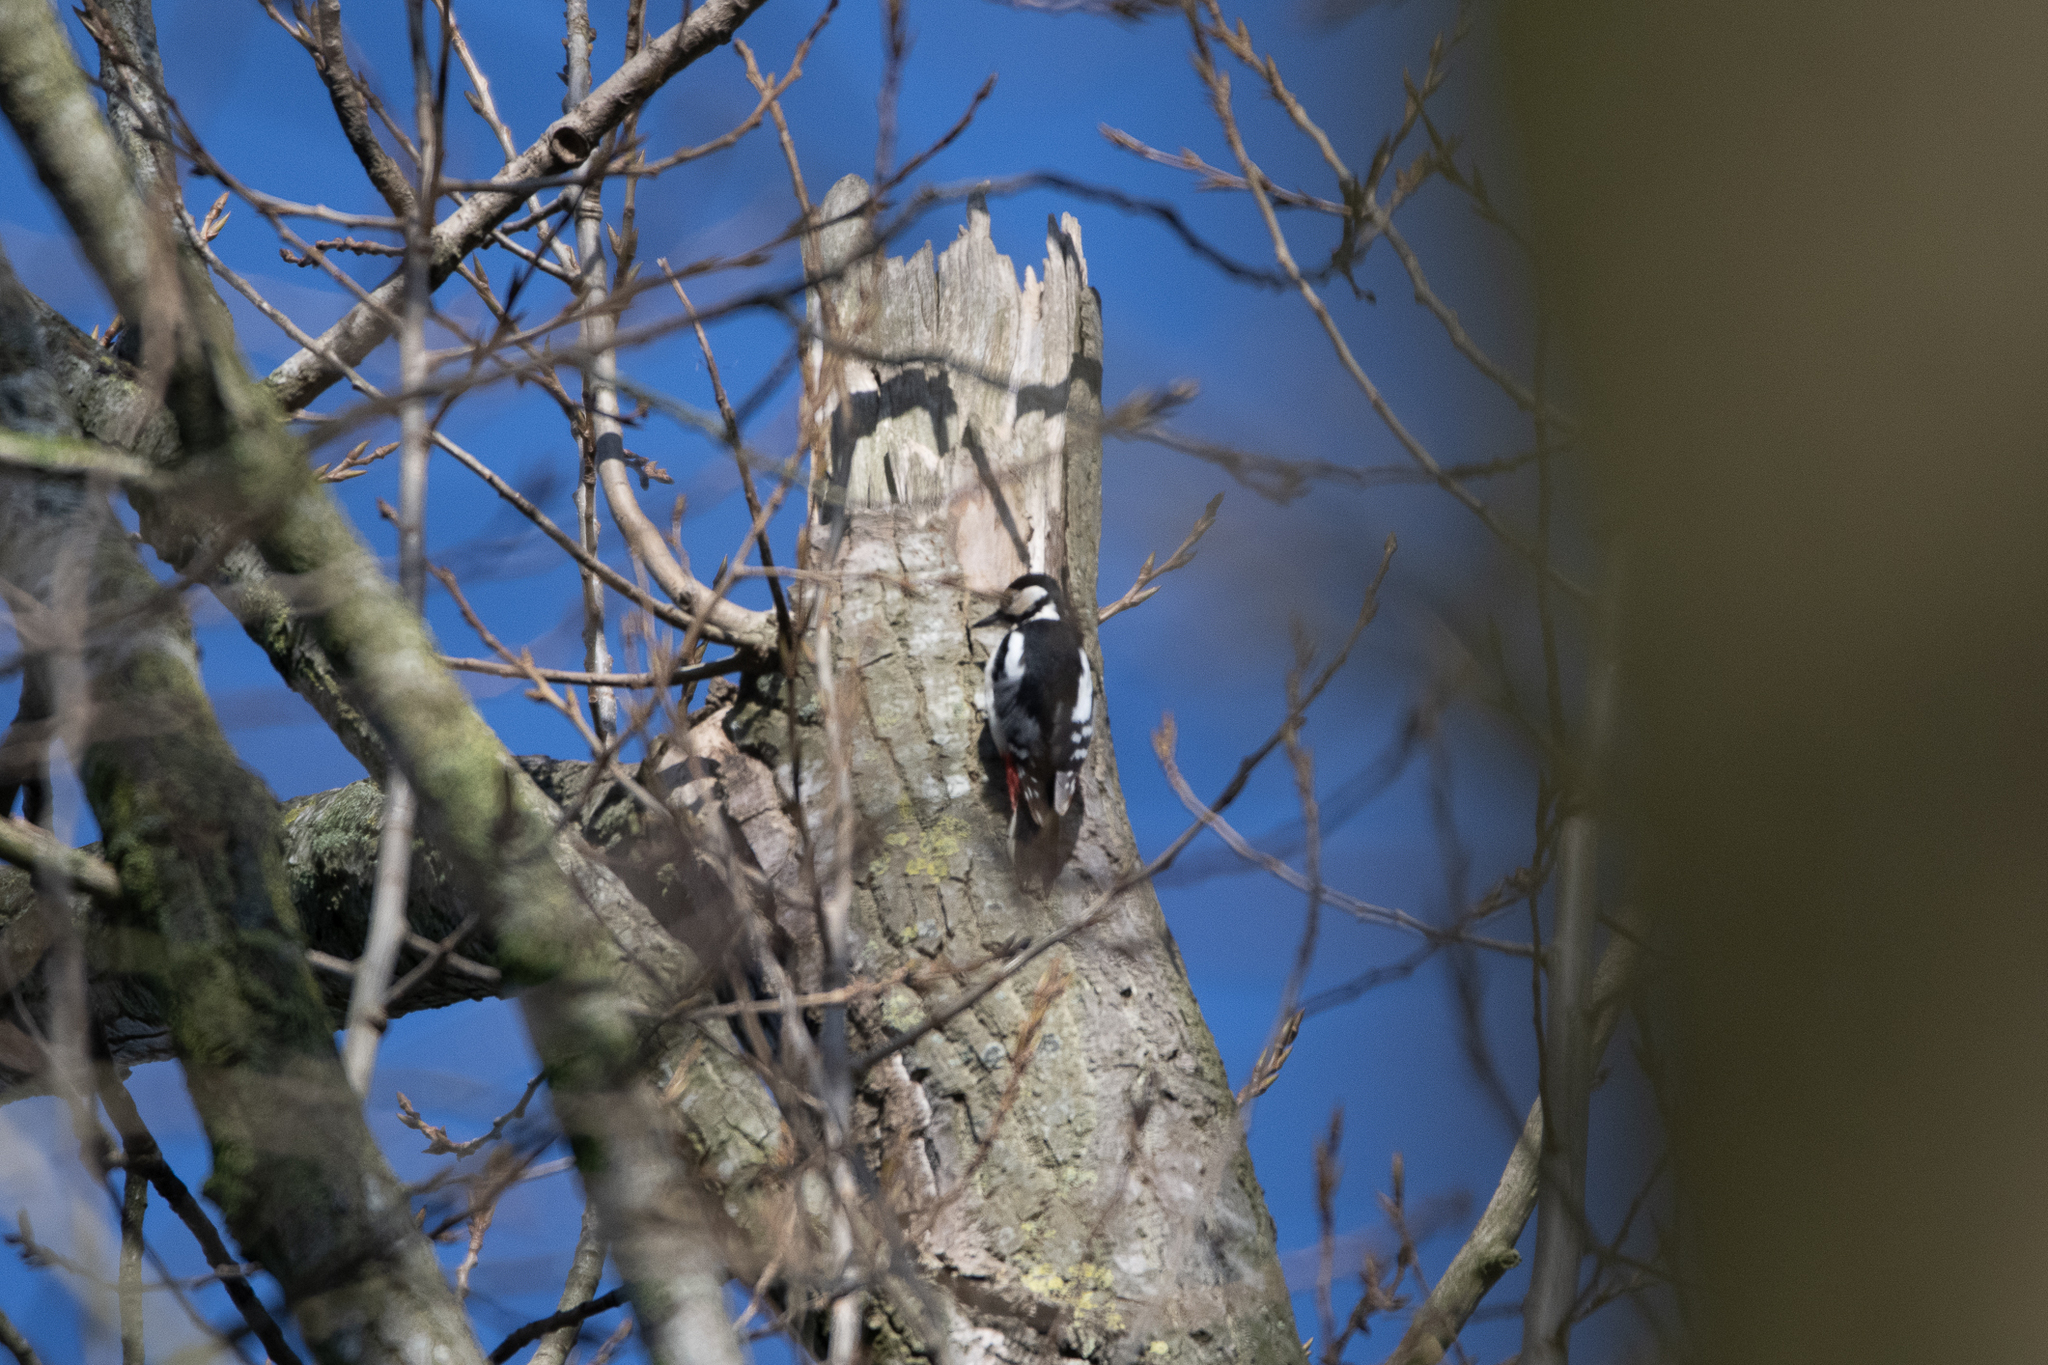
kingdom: Animalia
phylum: Chordata
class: Aves
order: Piciformes
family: Picidae
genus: Dendrocopos
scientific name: Dendrocopos major
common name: Great spotted woodpecker
